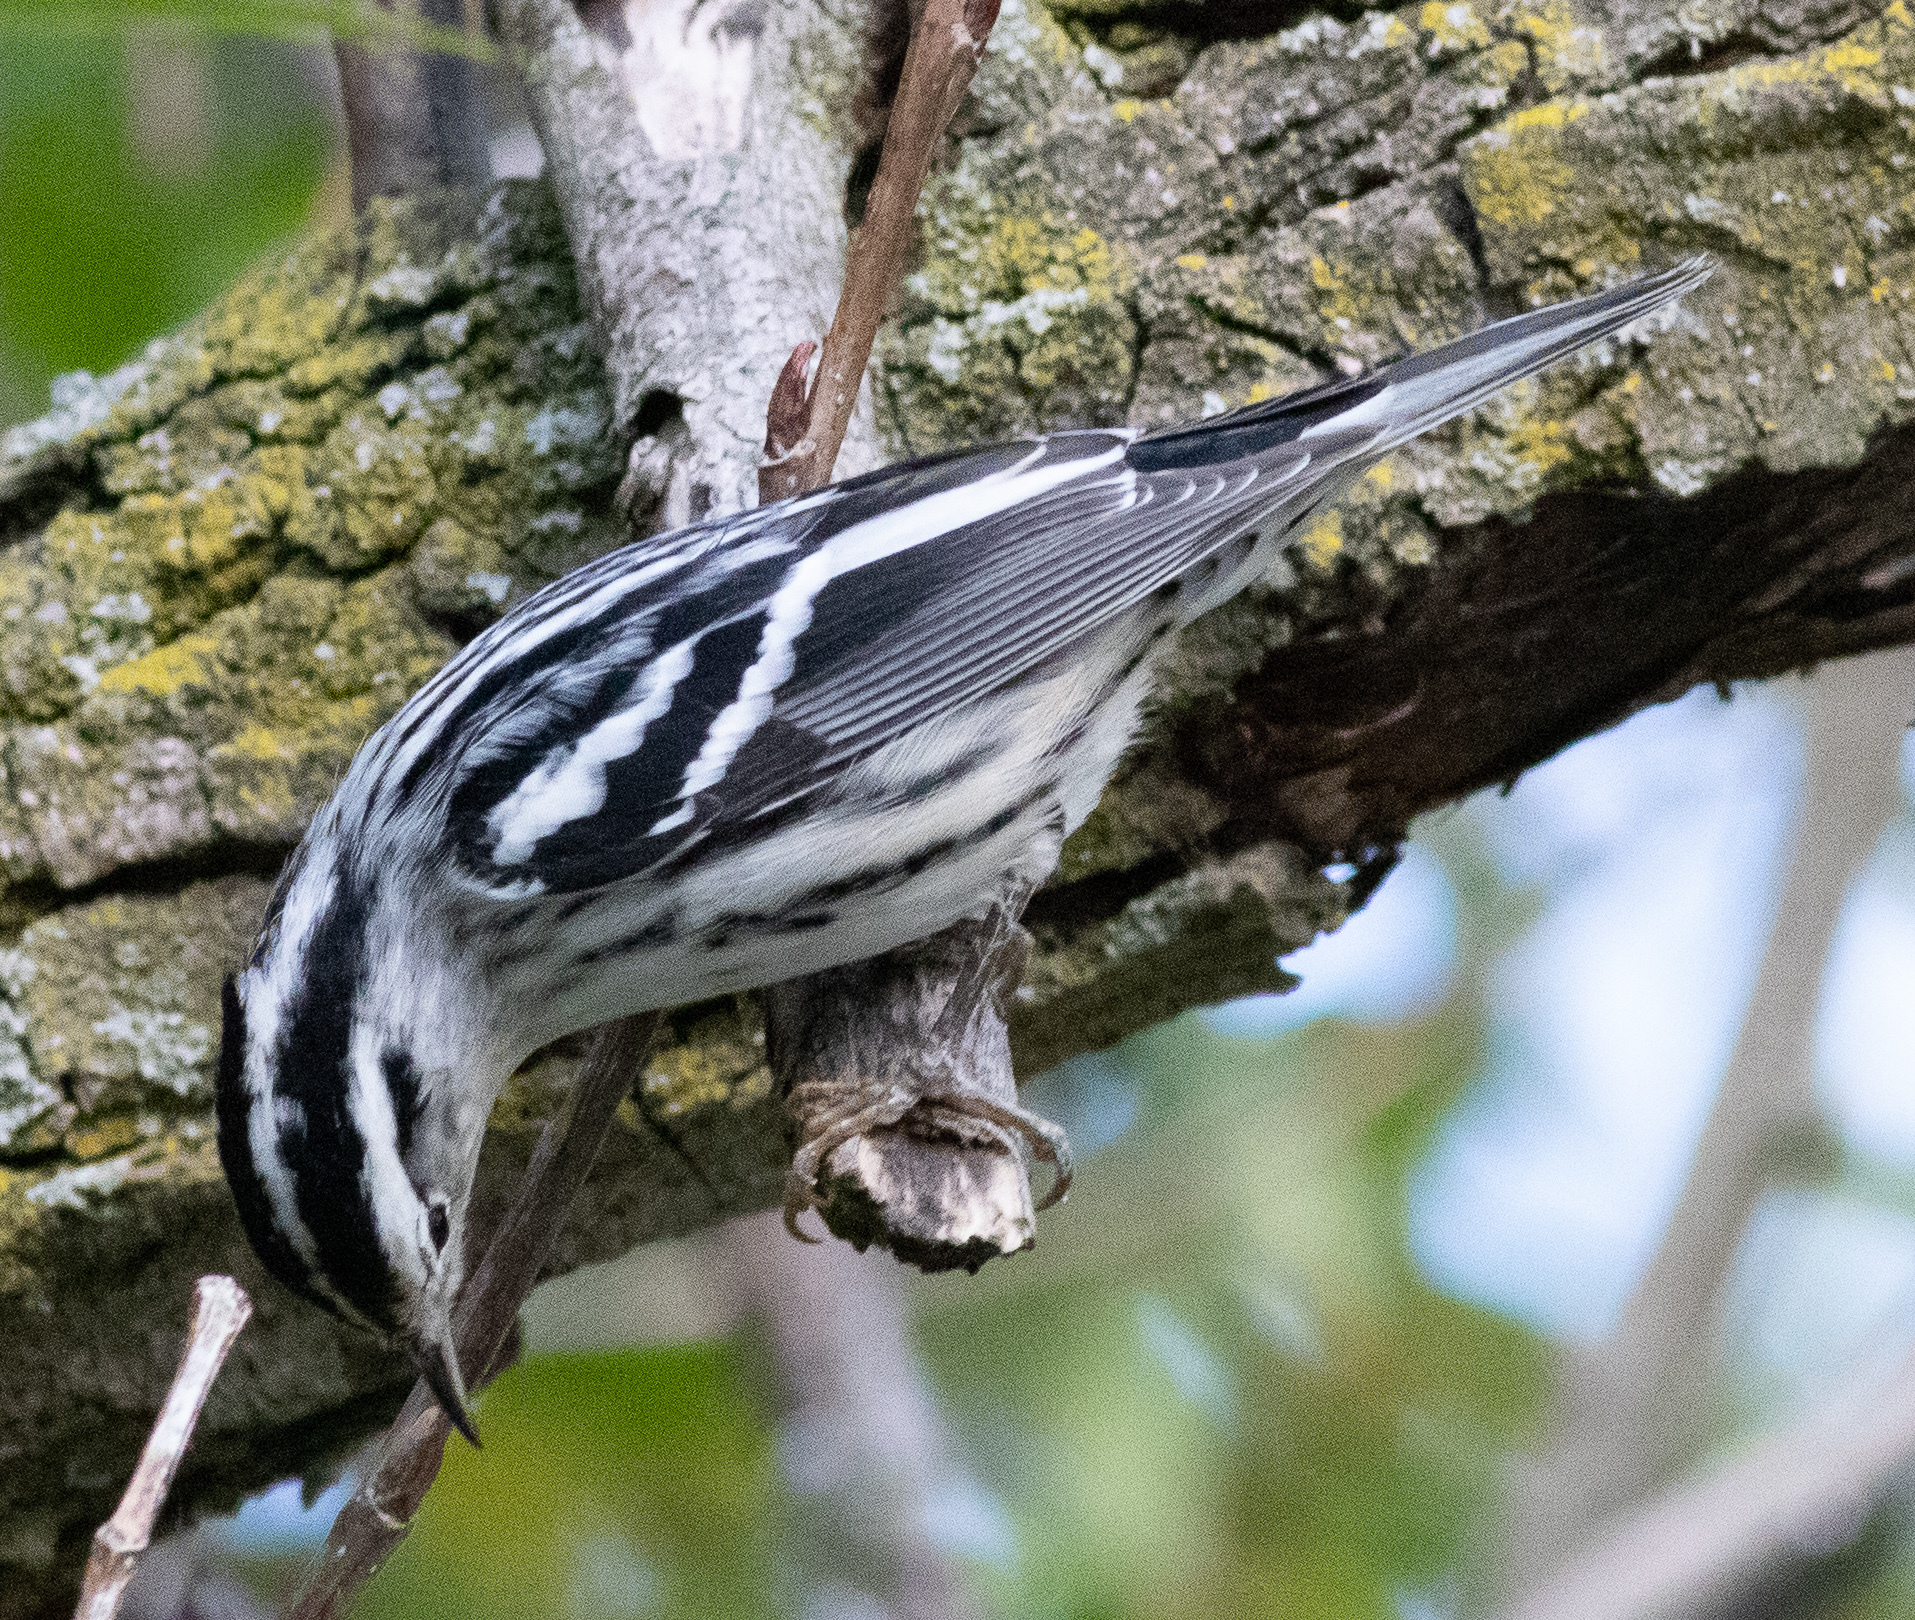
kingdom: Animalia
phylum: Chordata
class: Aves
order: Passeriformes
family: Parulidae
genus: Mniotilta
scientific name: Mniotilta varia
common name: Black-and-white warbler
